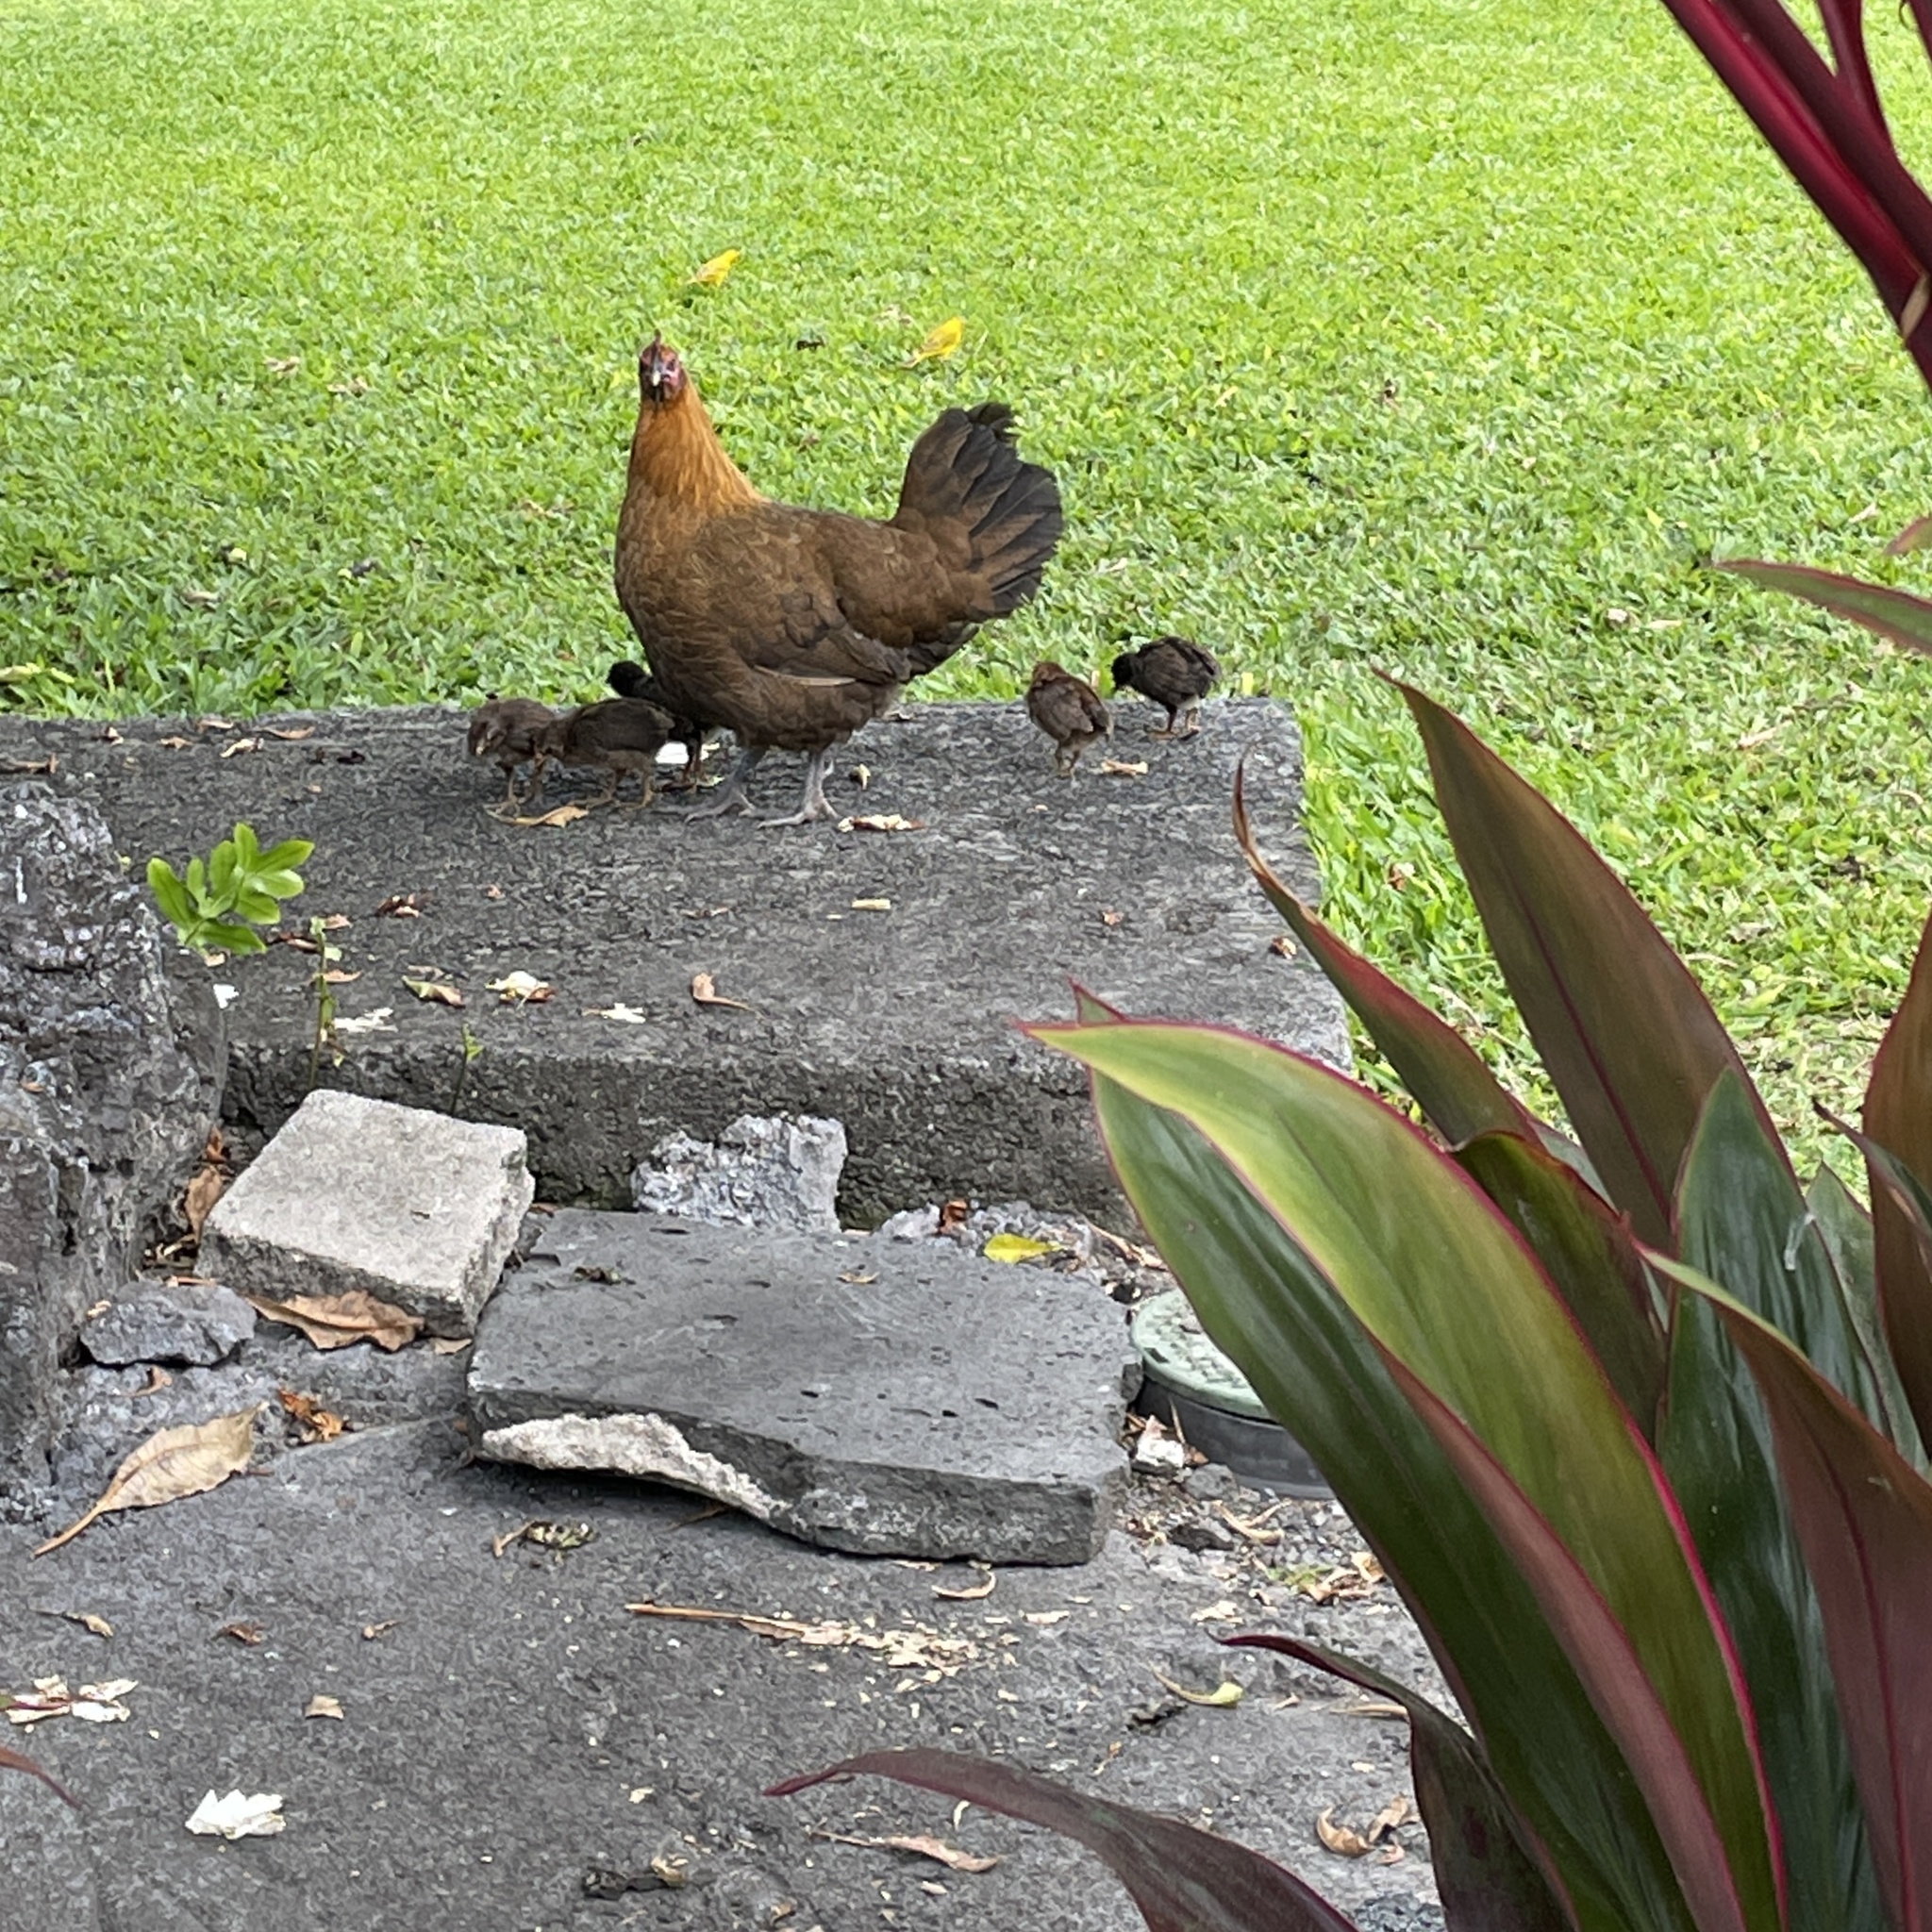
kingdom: Animalia
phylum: Chordata
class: Aves
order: Galliformes
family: Phasianidae
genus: Gallus
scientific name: Gallus gallus
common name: Red junglefowl
